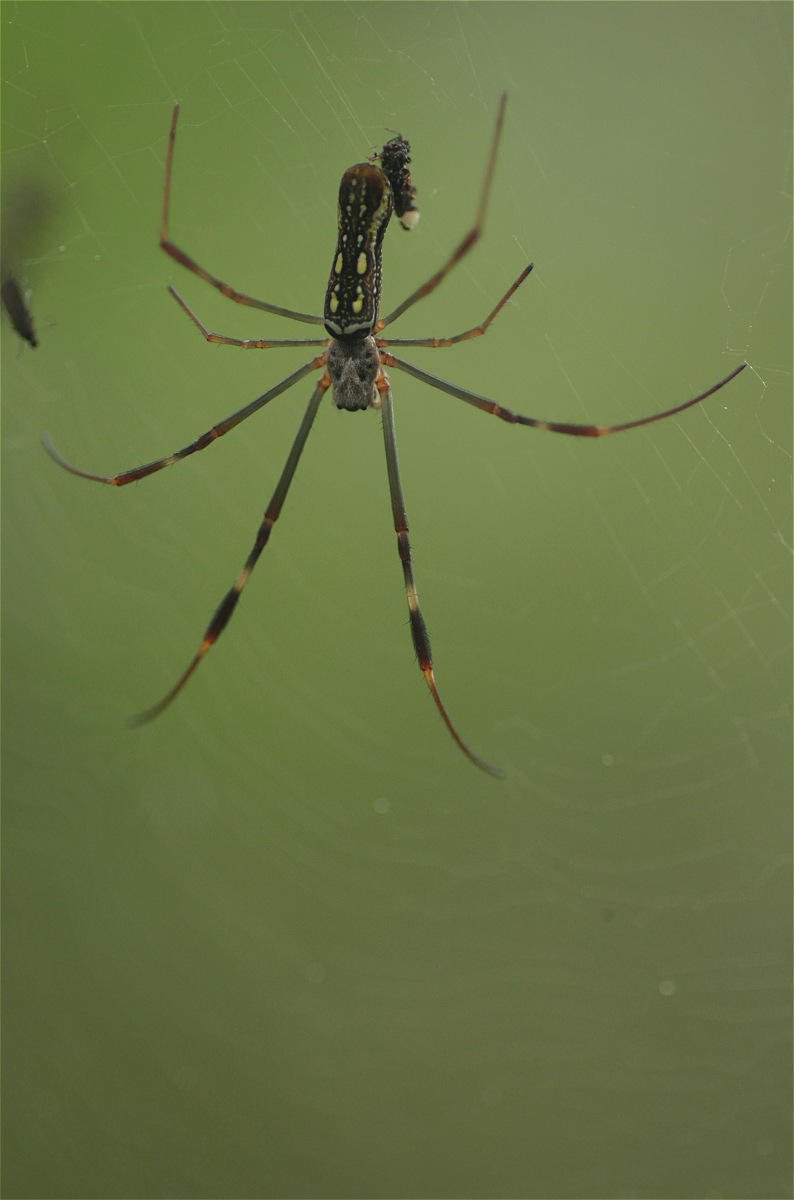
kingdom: Animalia
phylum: Arthropoda
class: Arachnida
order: Araneae
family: Araneidae
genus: Trichonephila
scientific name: Trichonephila clavipes
